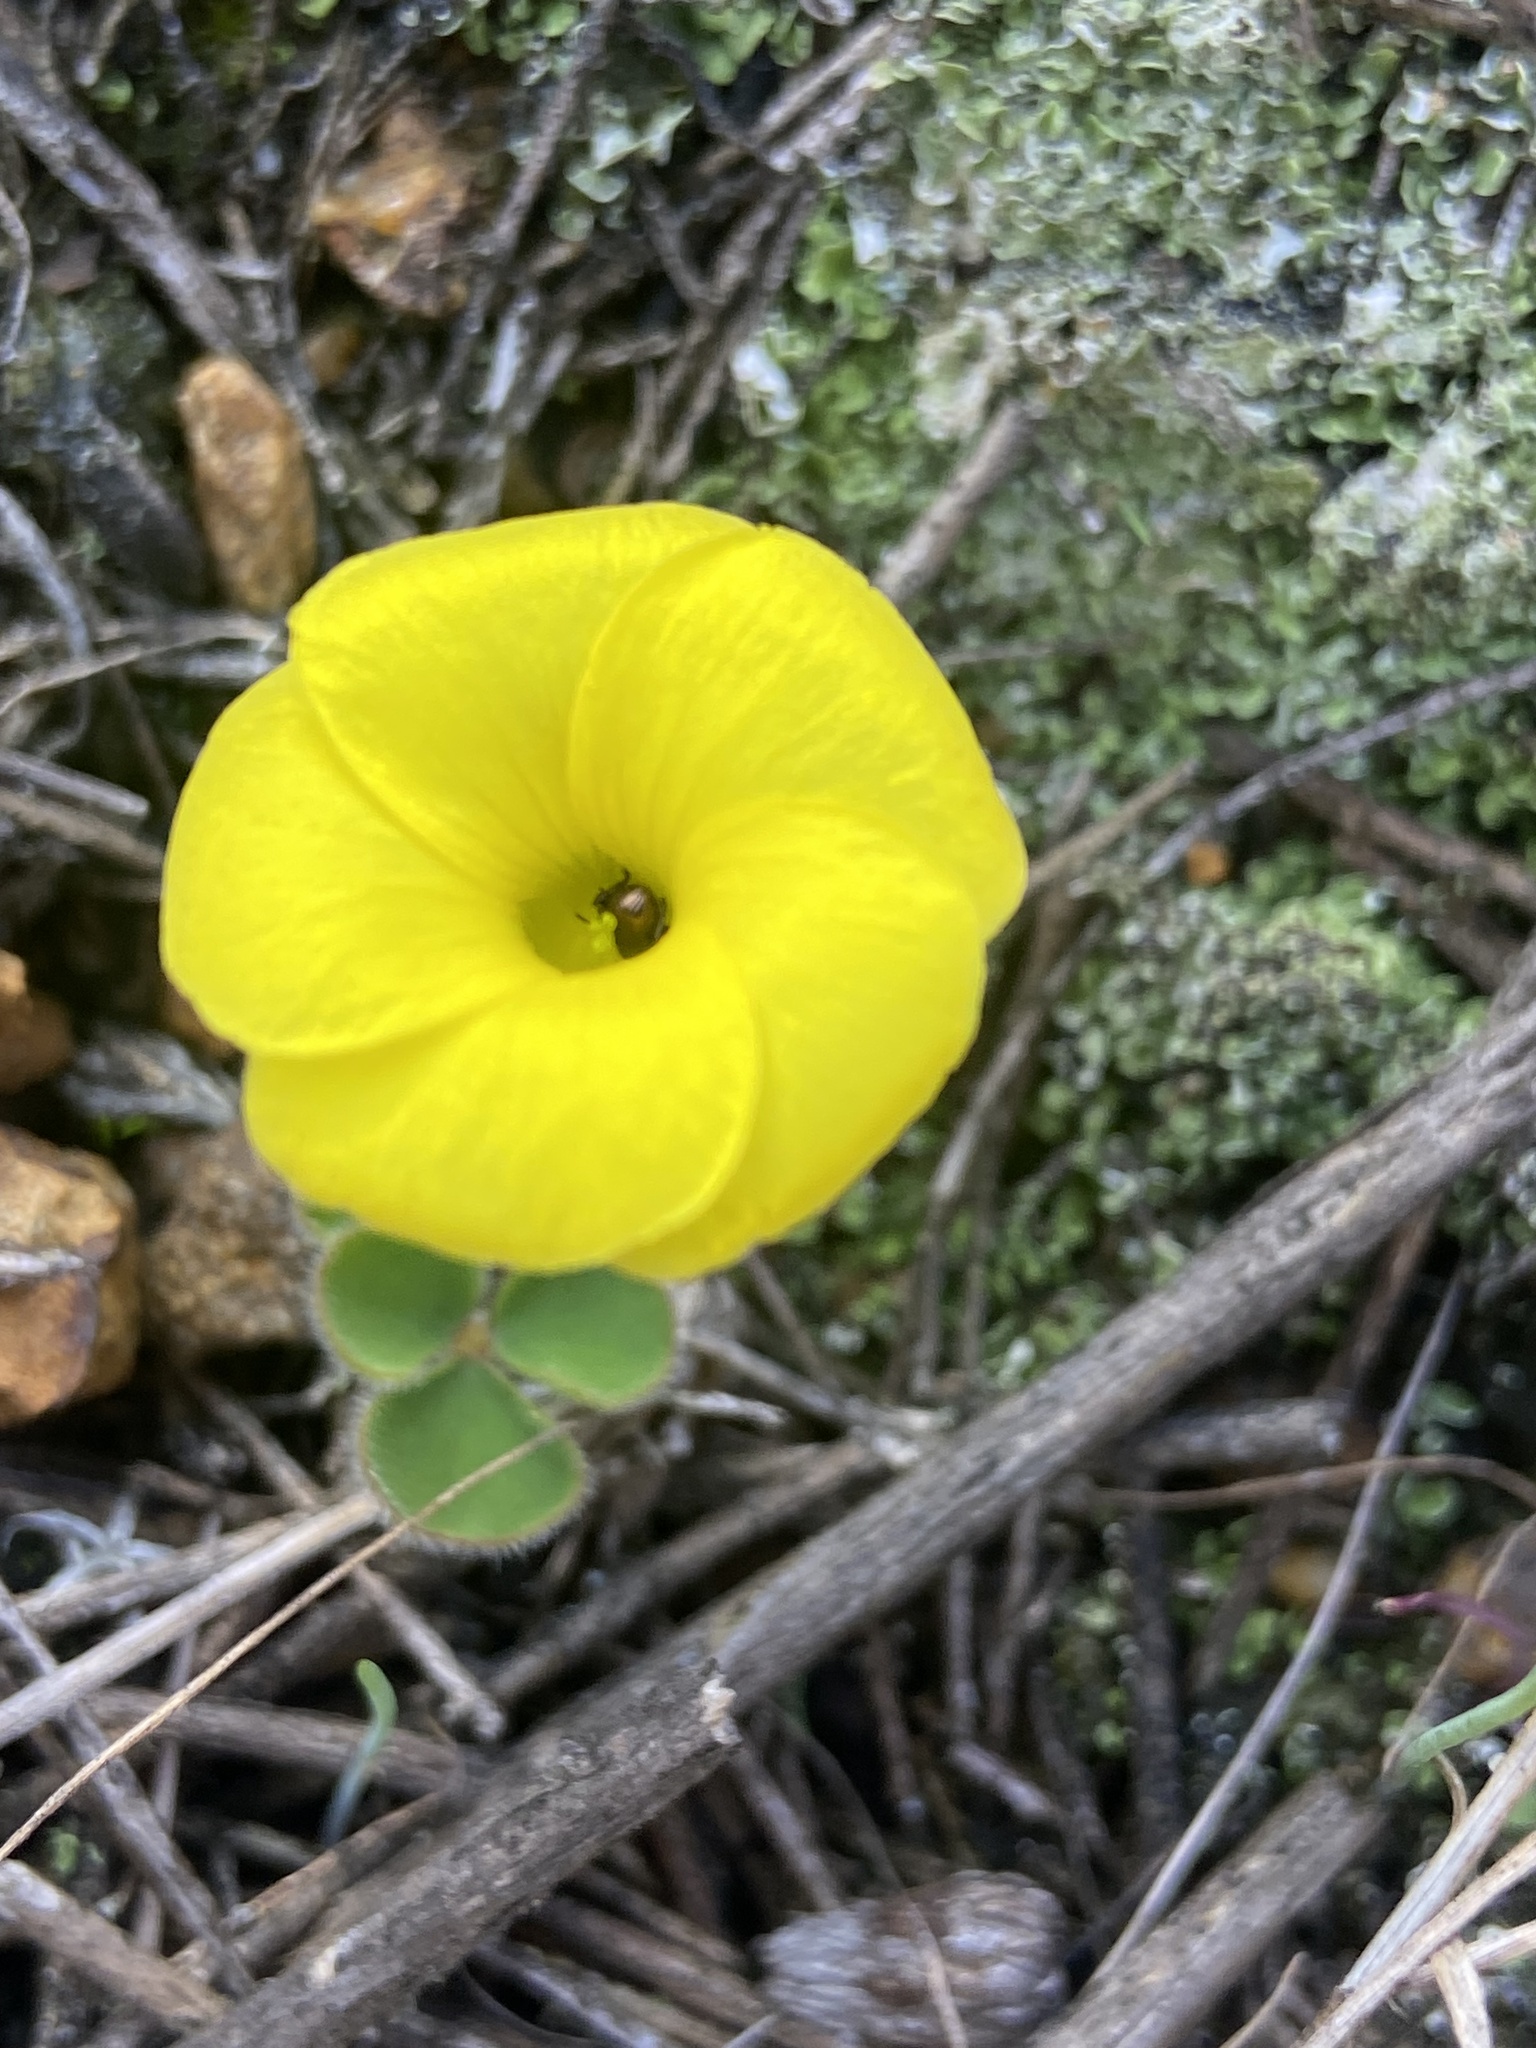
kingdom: Plantae
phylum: Tracheophyta
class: Magnoliopsida
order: Oxalidales
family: Oxalidaceae
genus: Oxalis
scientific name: Oxalis luteola
